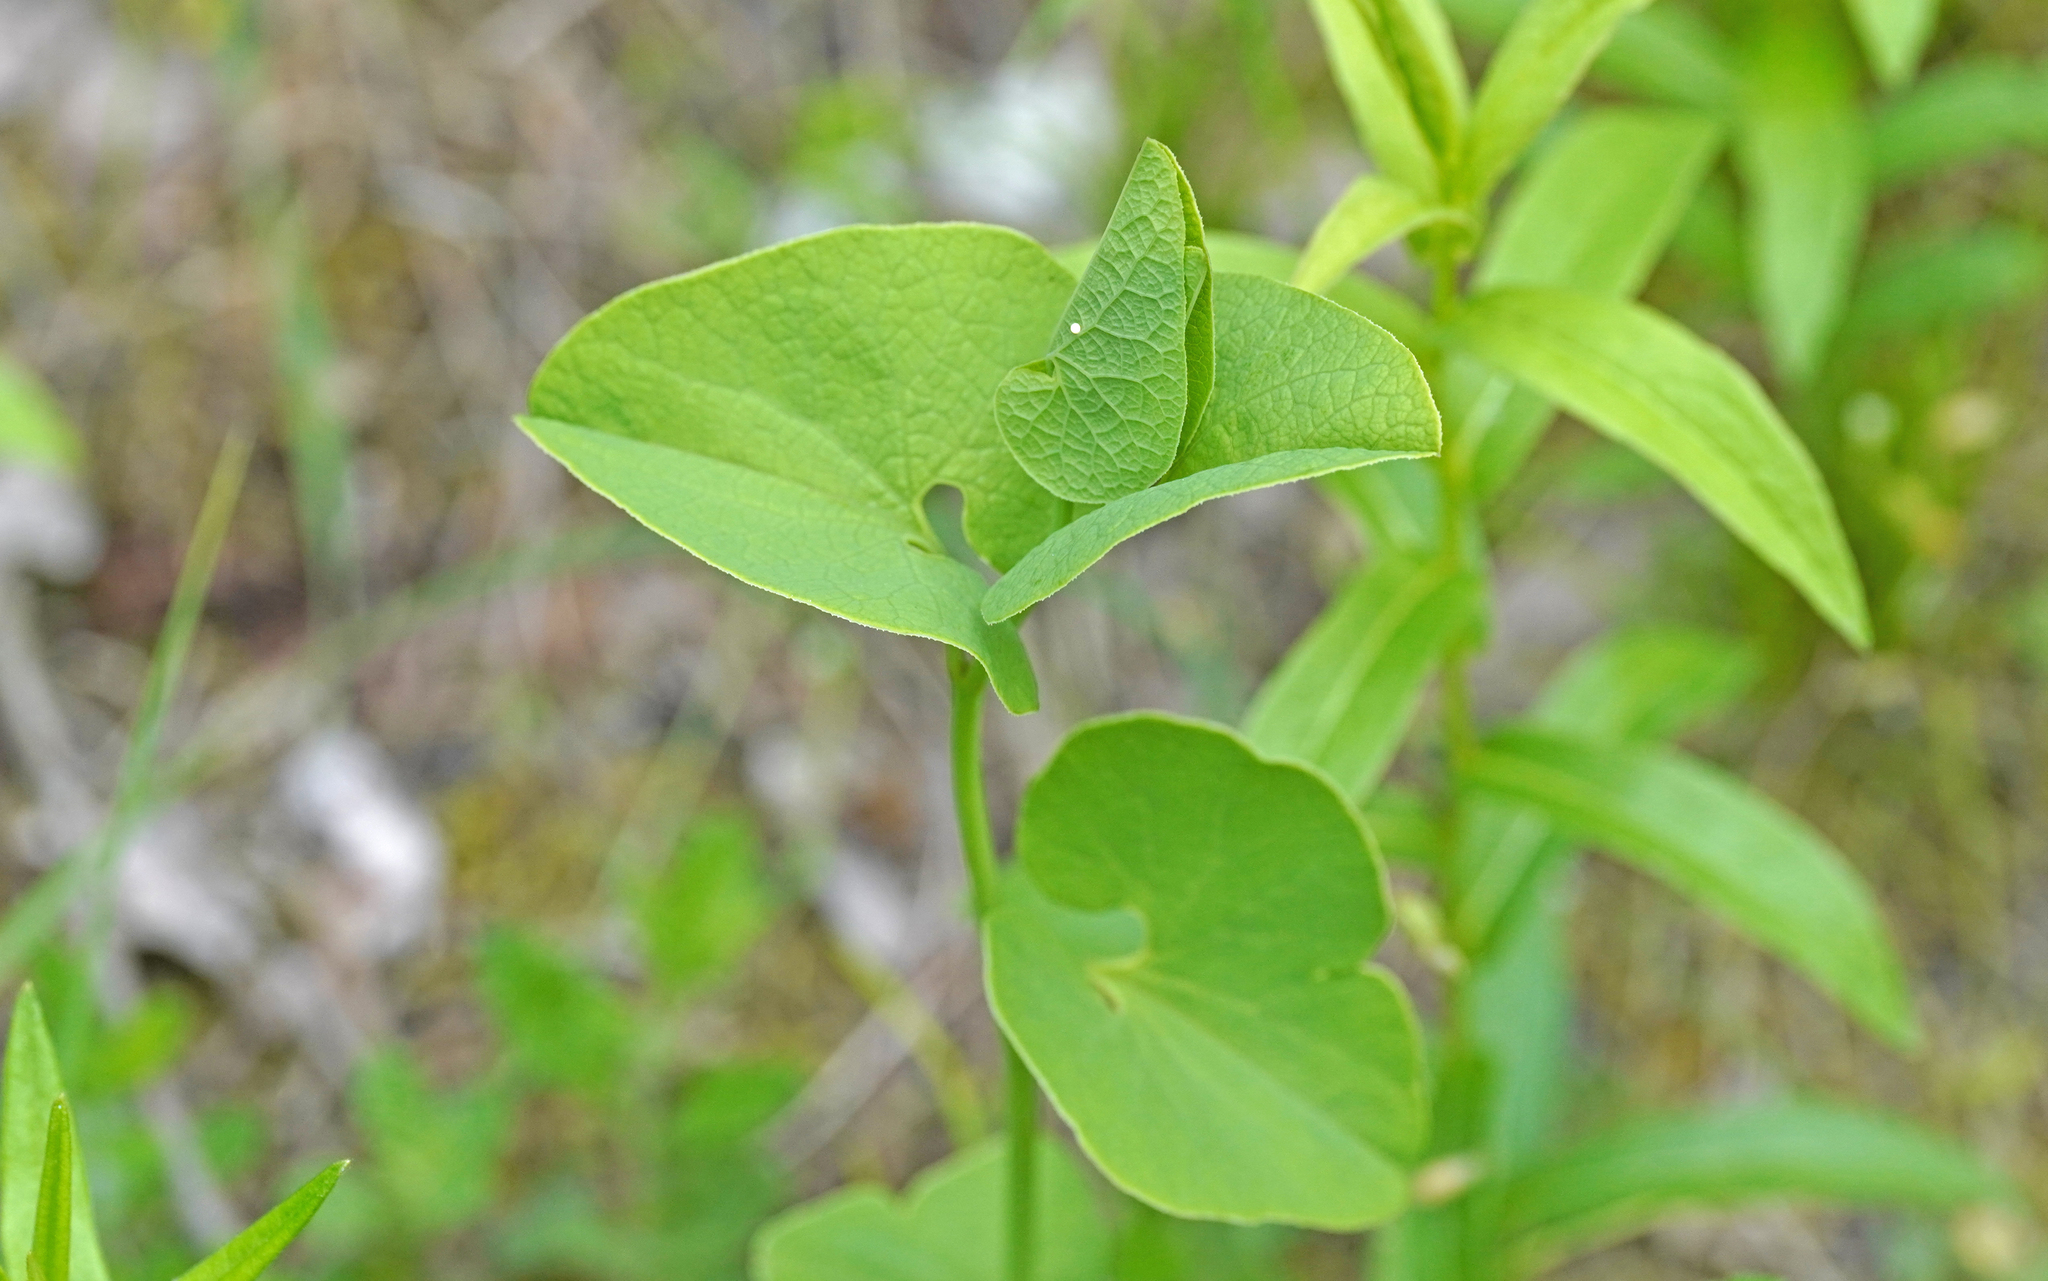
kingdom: Animalia
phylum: Arthropoda
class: Insecta
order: Lepidoptera
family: Papilionidae
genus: Zerynthia
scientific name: Zerynthia polyxena
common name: Southern festoon
